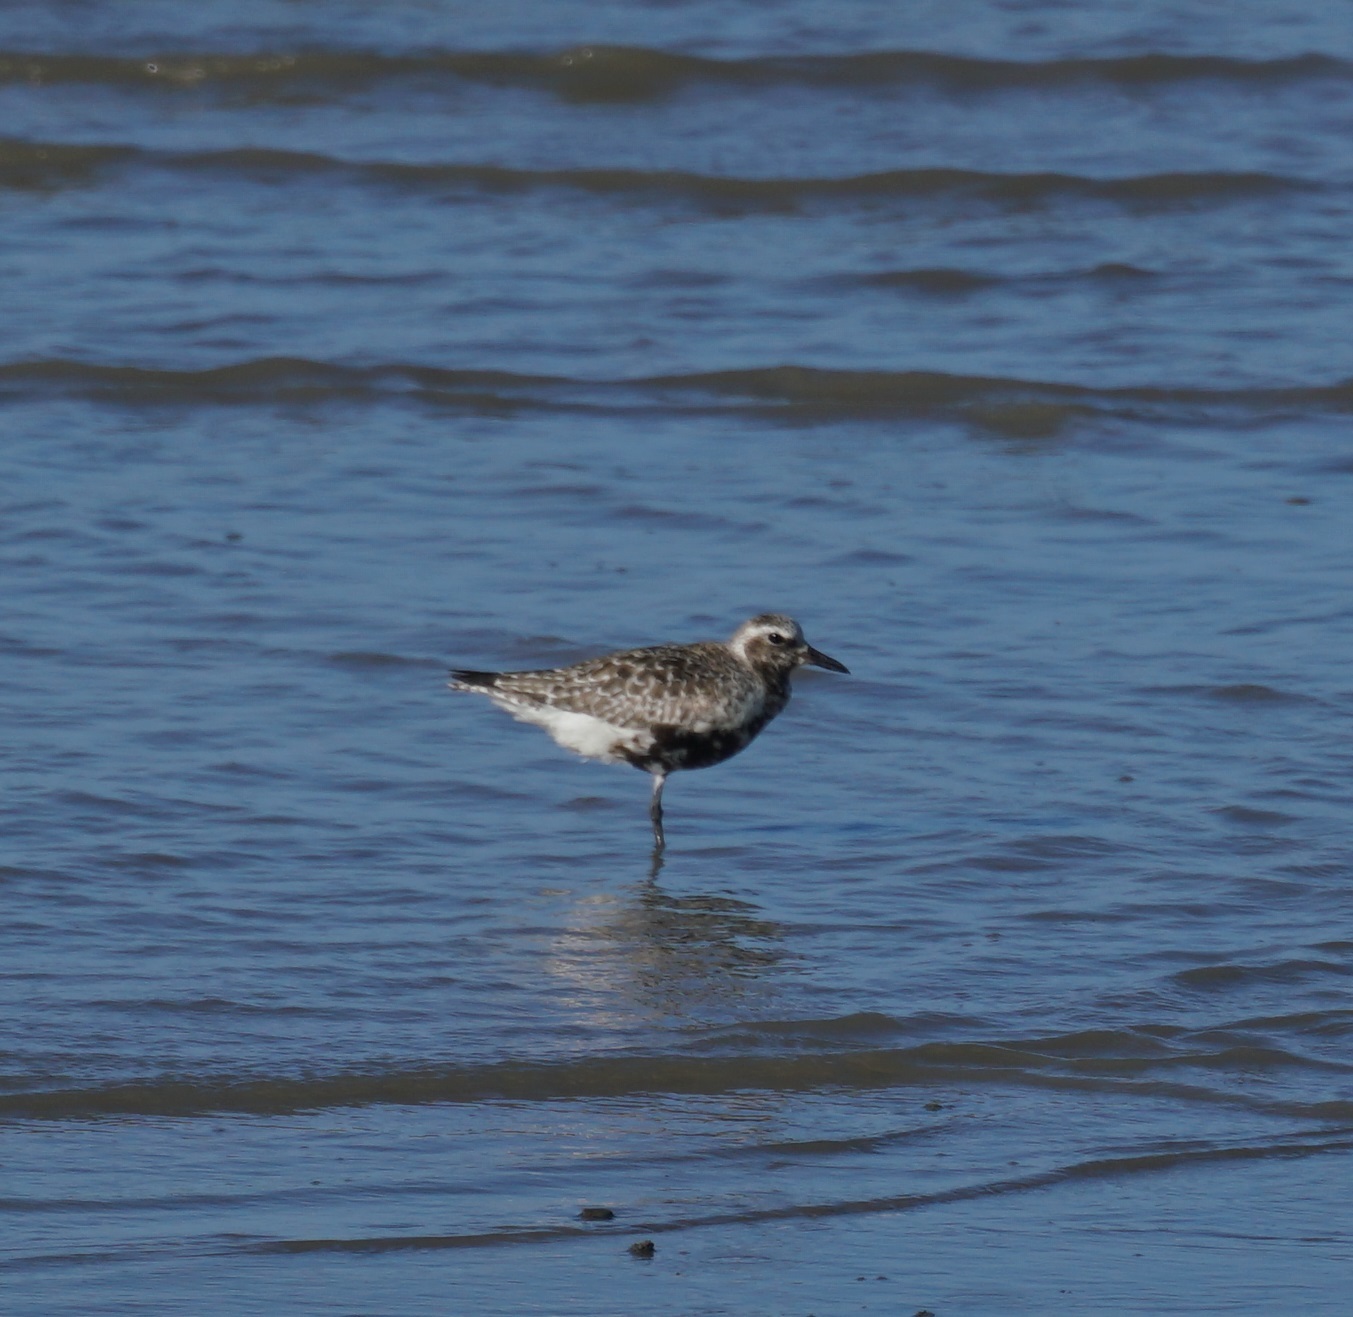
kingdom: Animalia
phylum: Chordata
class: Aves
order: Charadriiformes
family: Charadriidae
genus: Pluvialis
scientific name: Pluvialis squatarola
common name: Grey plover
